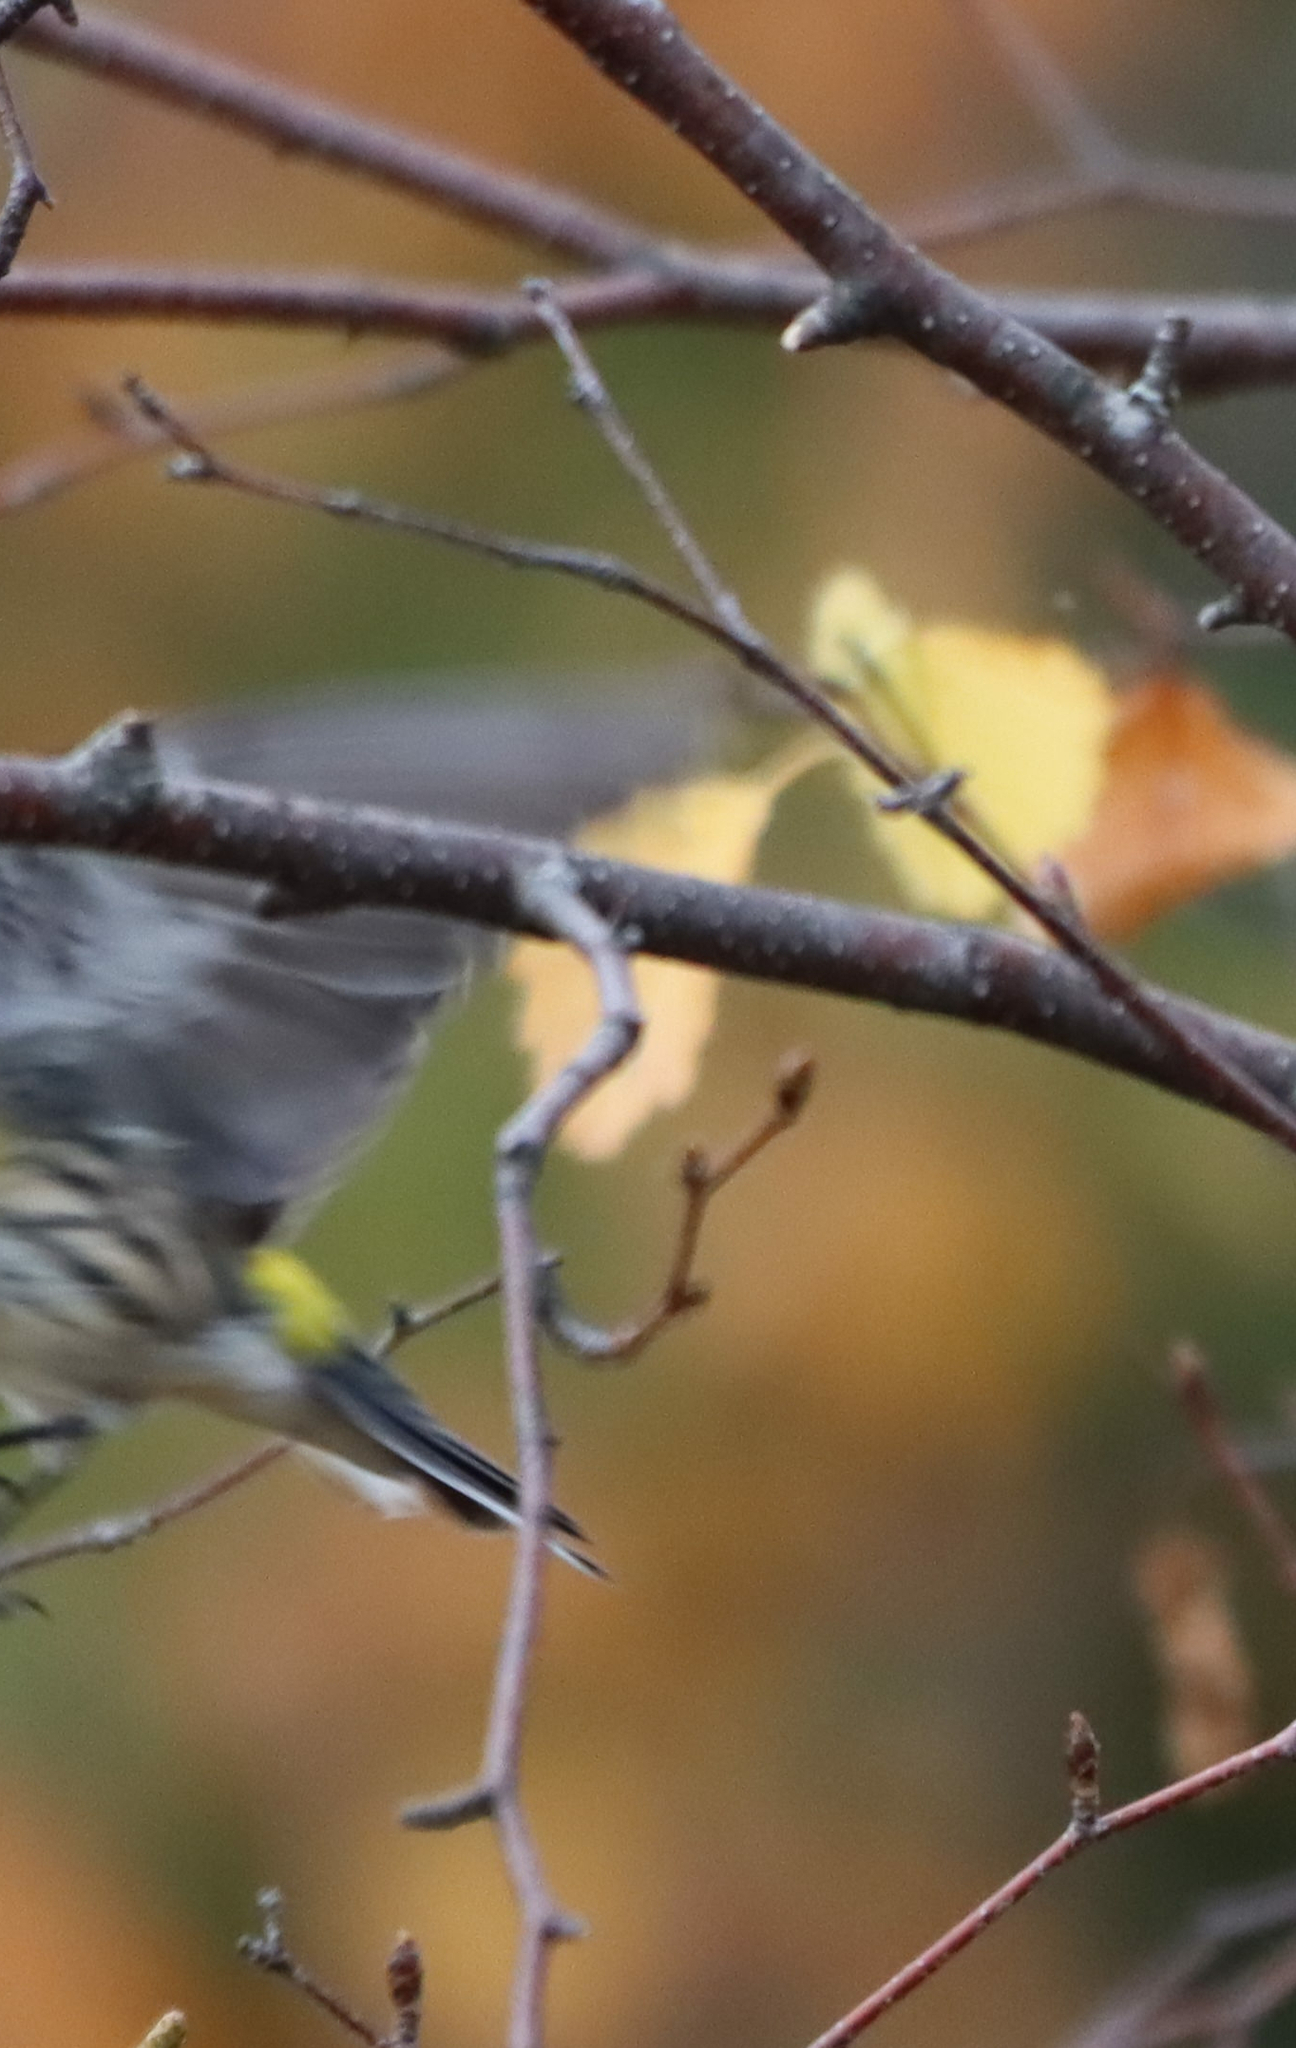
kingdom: Animalia
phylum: Chordata
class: Aves
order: Passeriformes
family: Parulidae
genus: Setophaga
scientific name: Setophaga coronata
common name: Myrtle warbler
